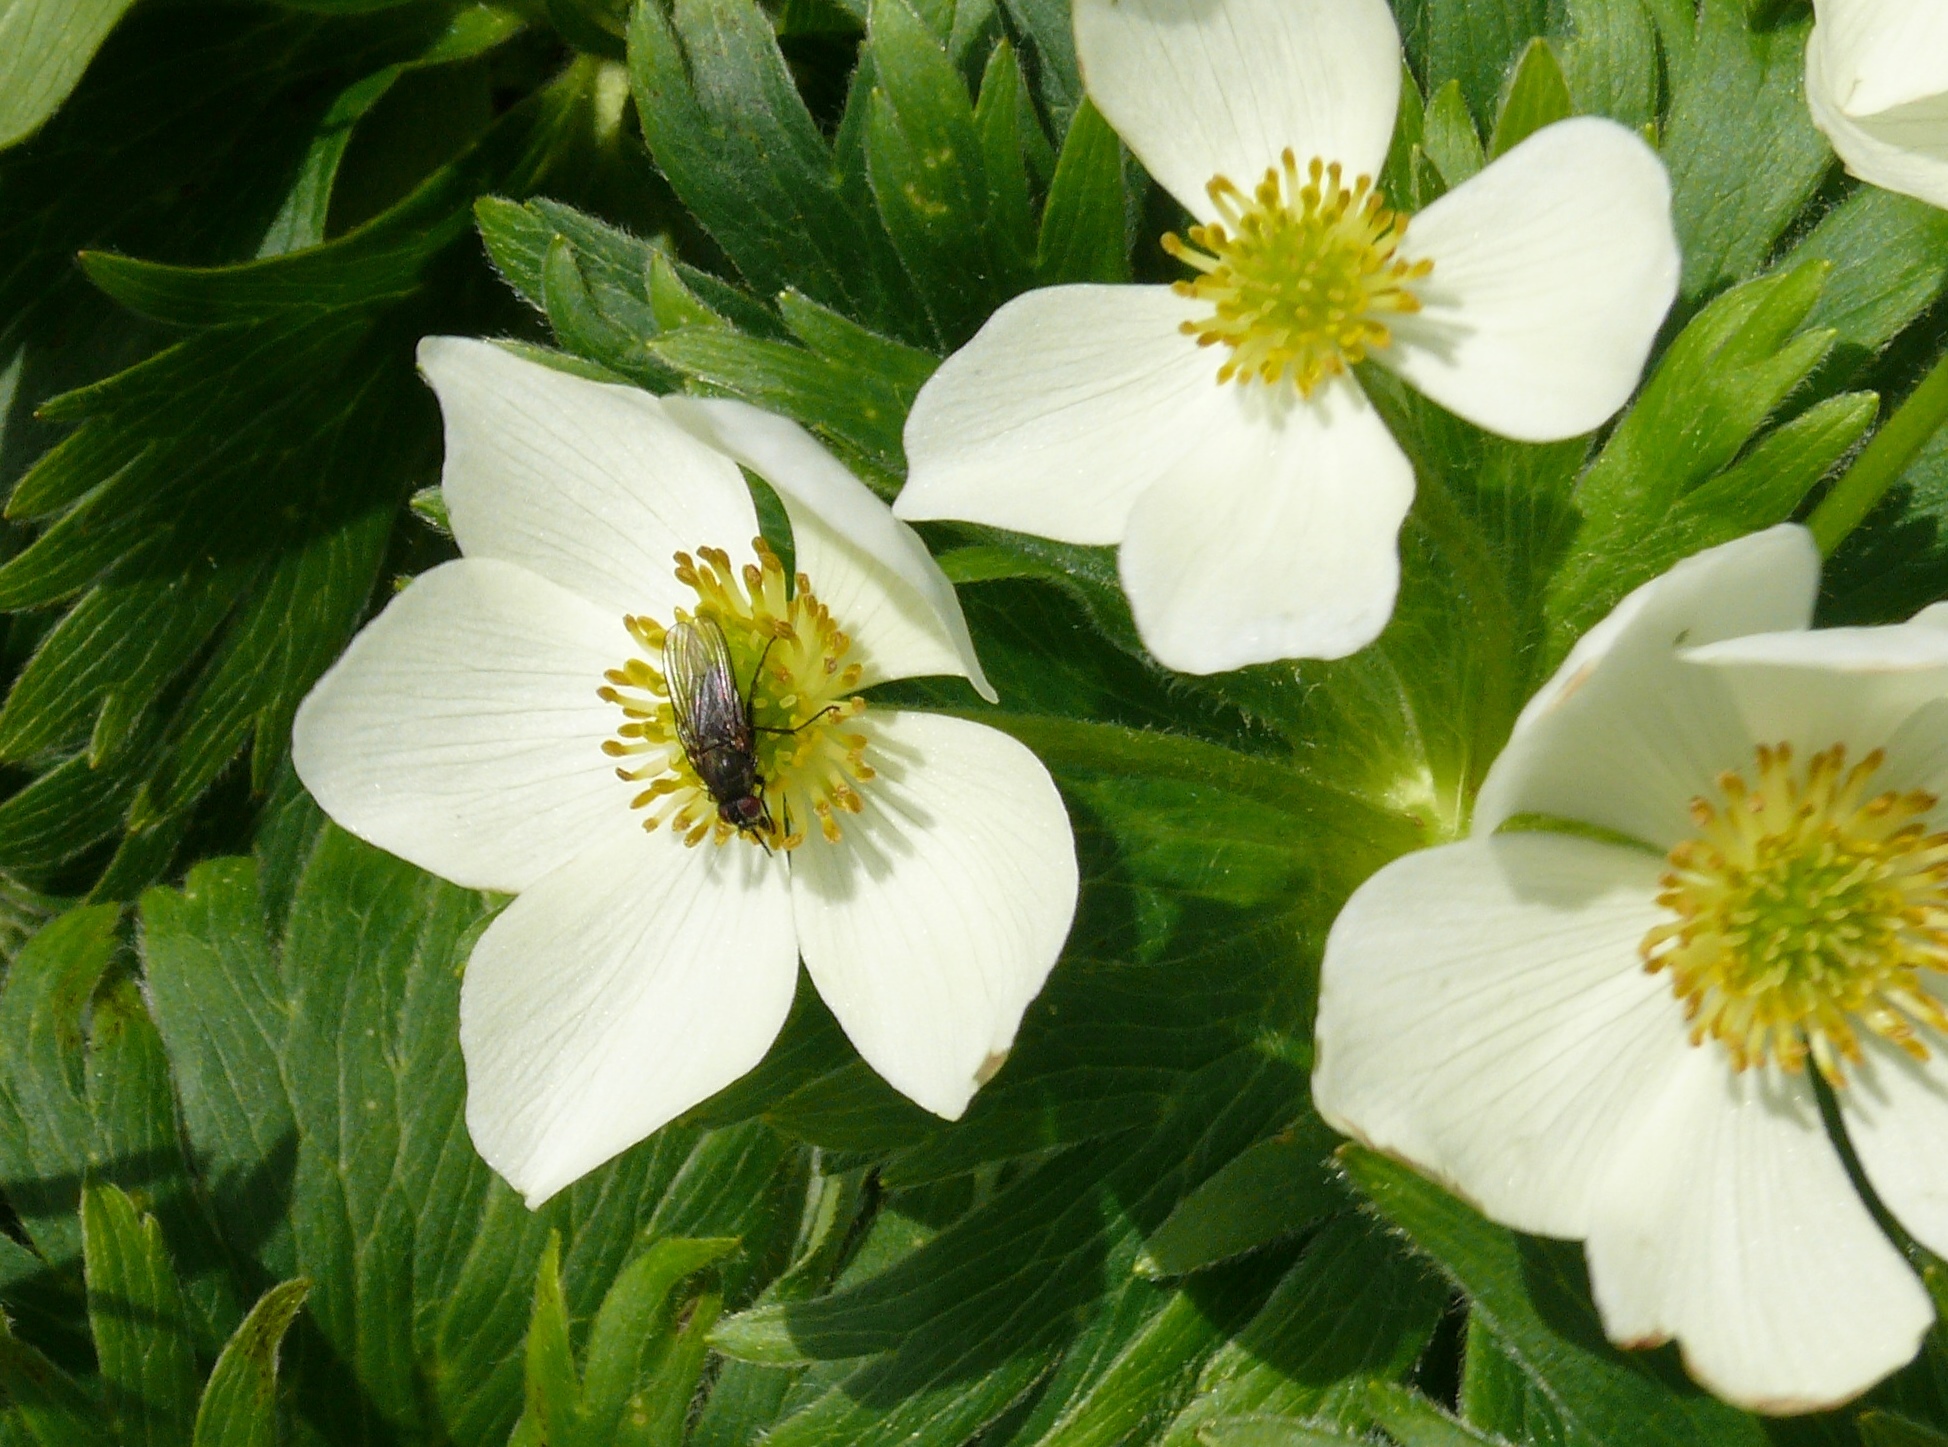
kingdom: Plantae
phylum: Tracheophyta
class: Magnoliopsida
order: Ranunculales
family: Ranunculaceae
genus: Anemonastrum
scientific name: Anemonastrum narcissiflorum
